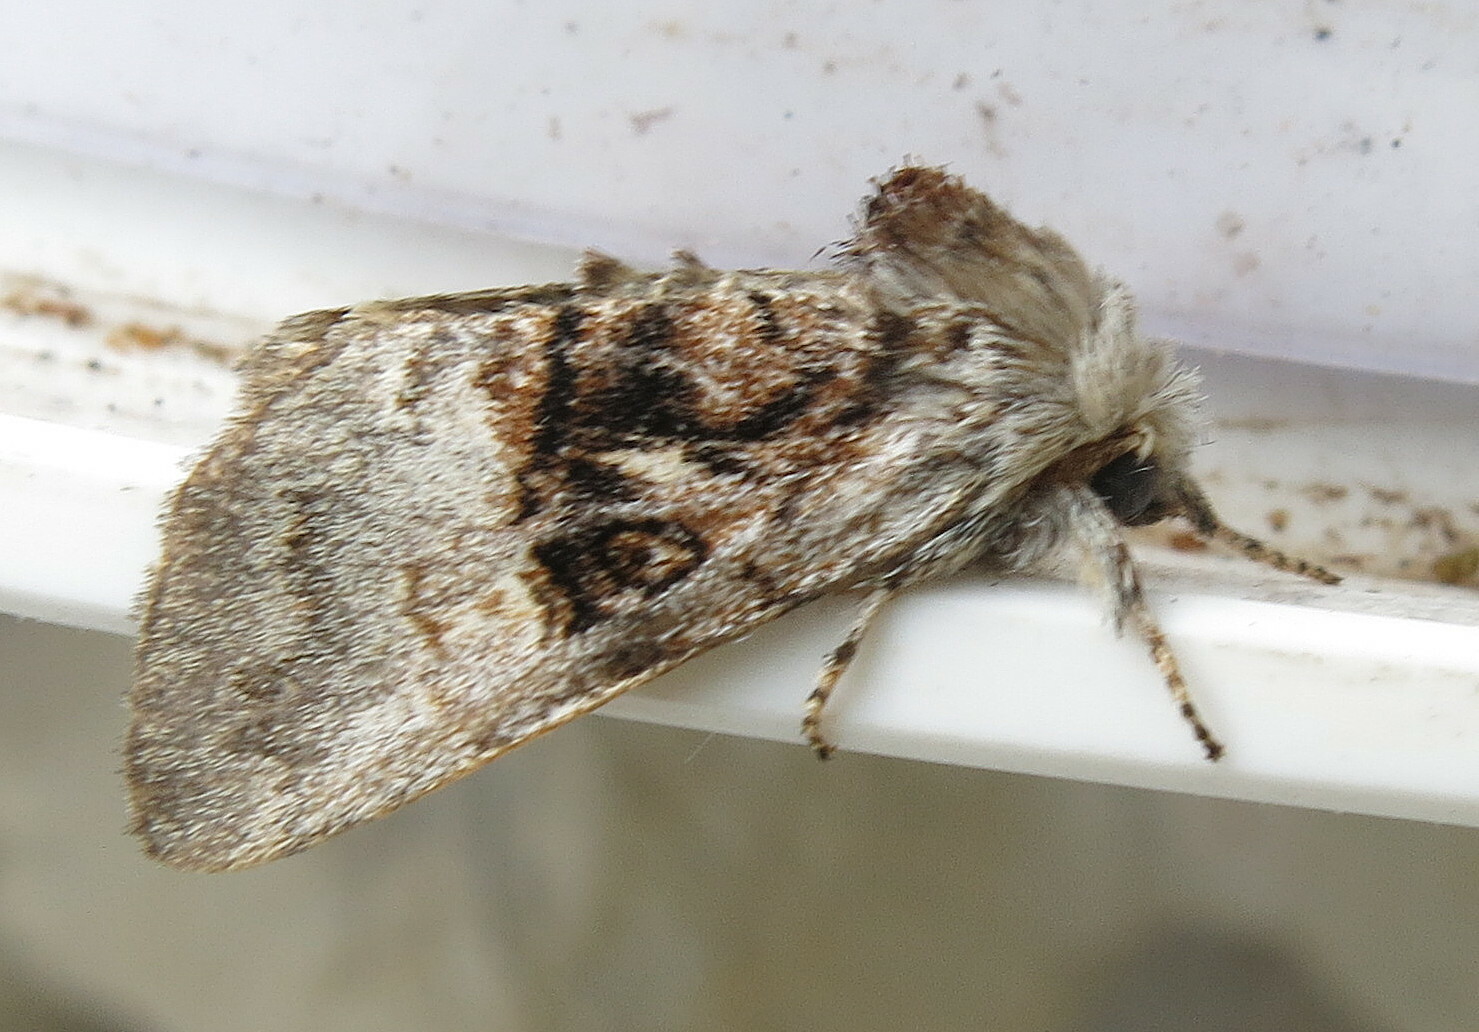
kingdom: Animalia
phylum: Arthropoda
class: Insecta
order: Lepidoptera
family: Noctuidae
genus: Colocasia
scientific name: Colocasia coryli
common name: Nut-tree tussock
